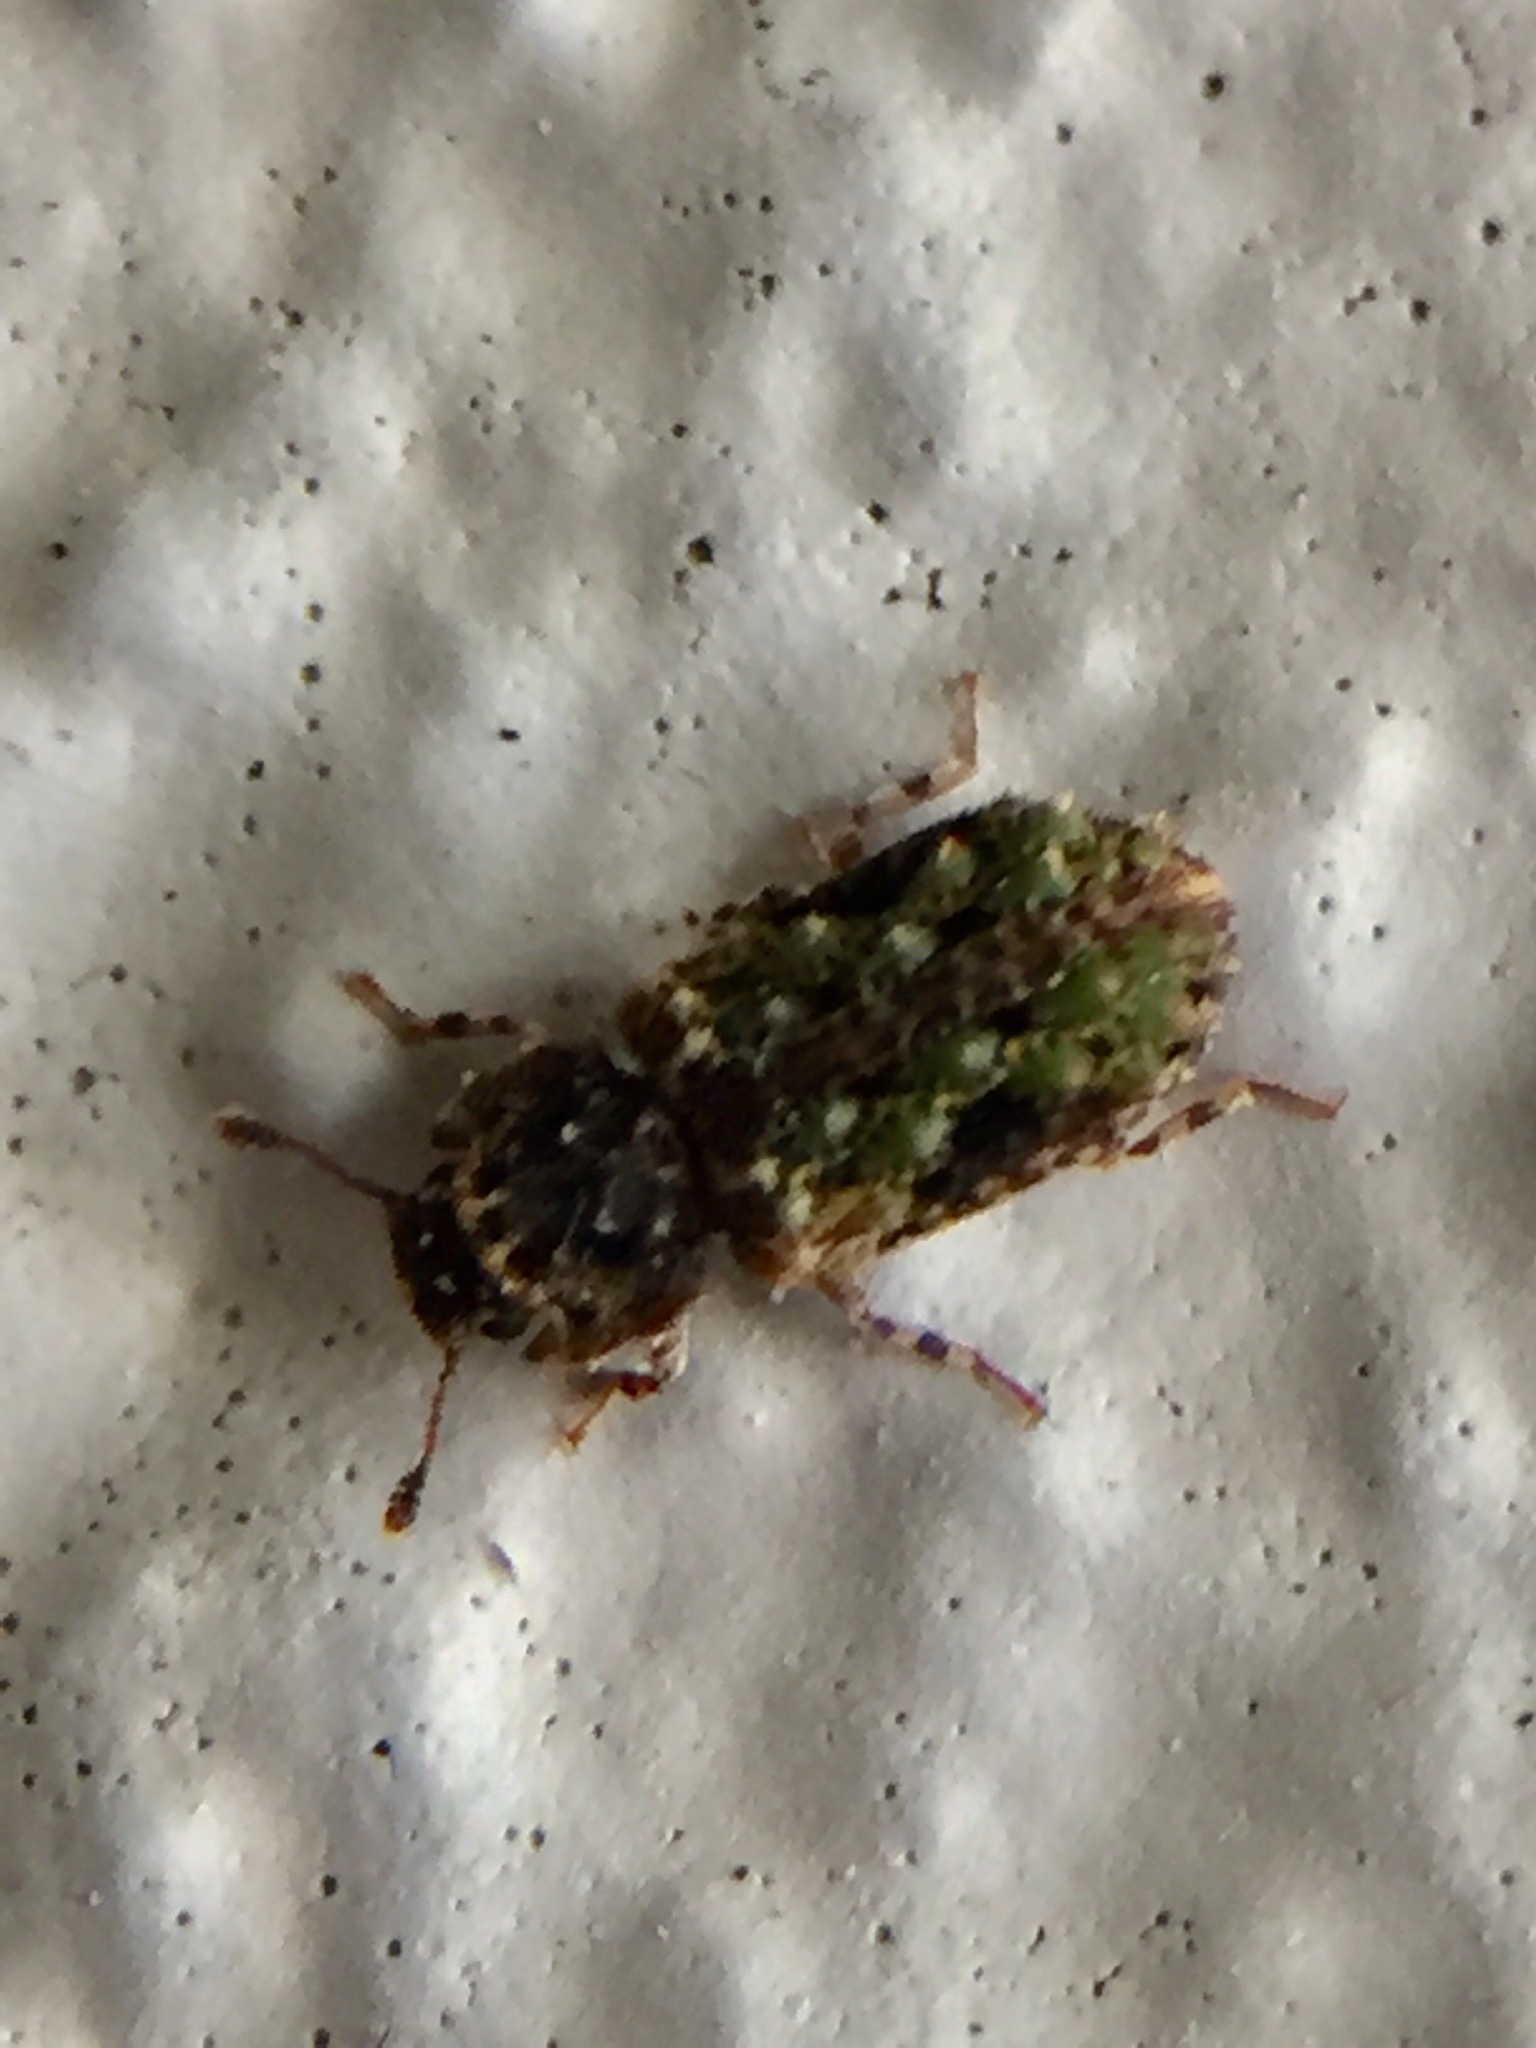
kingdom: Animalia
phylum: Arthropoda
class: Insecta
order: Coleoptera
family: Zopheridae
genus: Pristoderus
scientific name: Pristoderus
